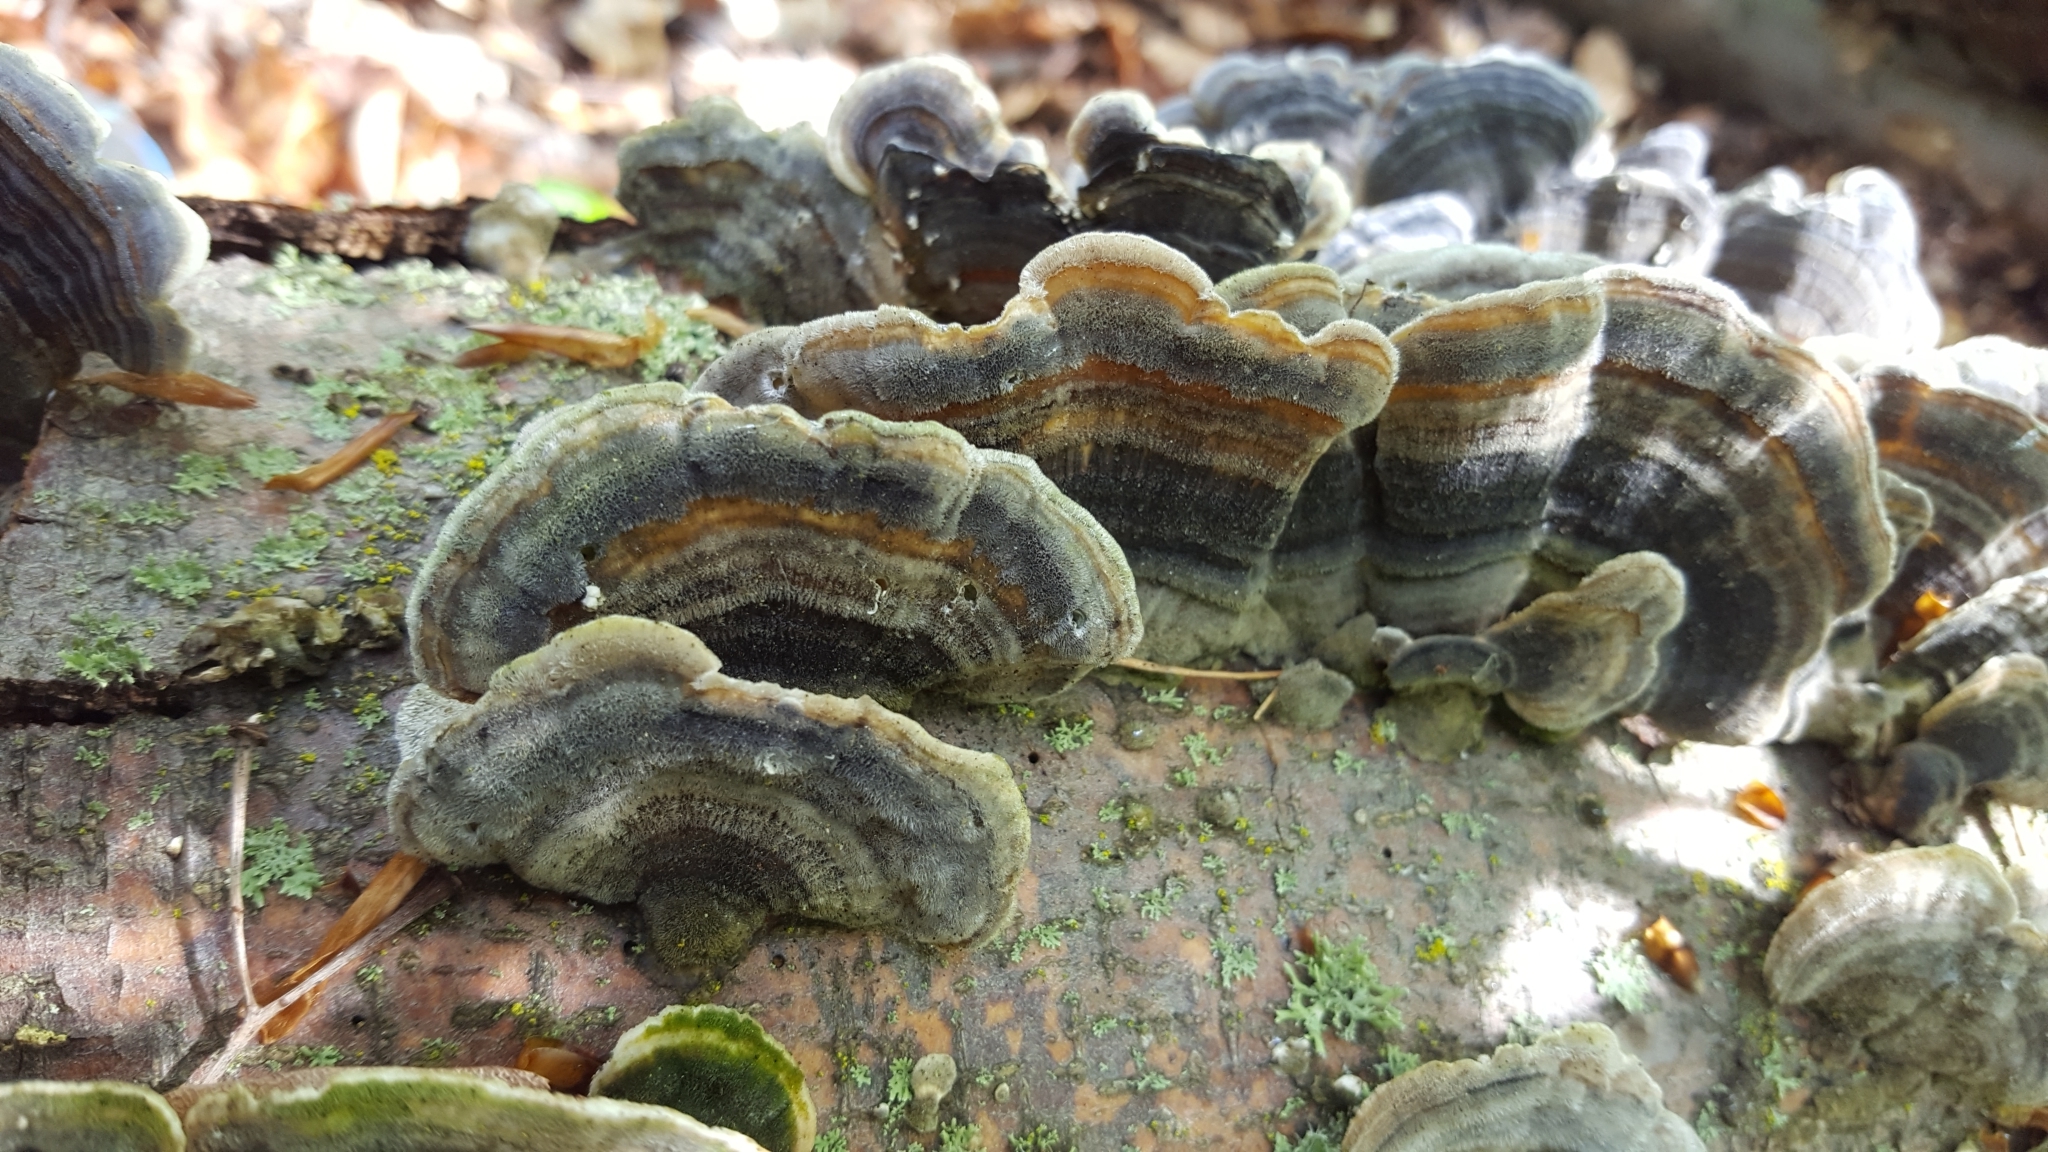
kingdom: Fungi
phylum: Basidiomycota
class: Agaricomycetes
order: Polyporales
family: Polyporaceae
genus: Trametes
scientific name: Trametes versicolor
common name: Turkeytail
